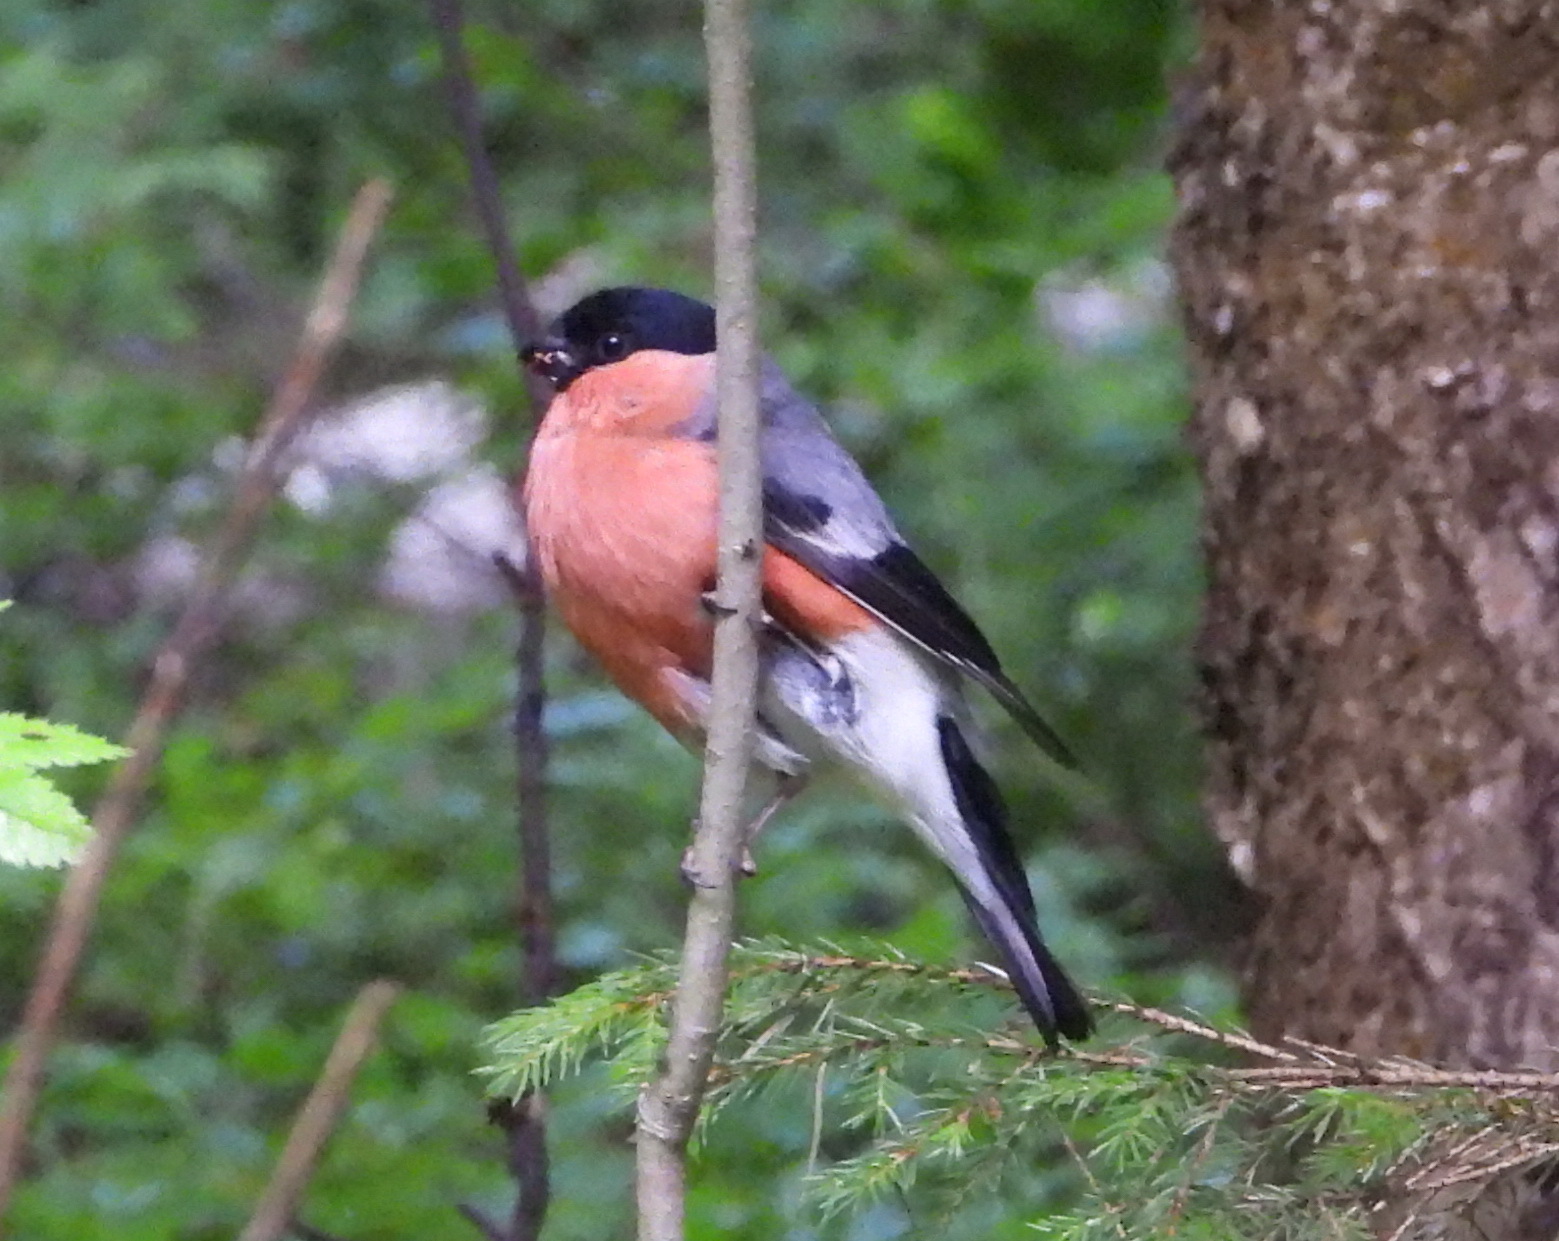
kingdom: Animalia
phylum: Chordata
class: Aves
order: Passeriformes
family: Fringillidae
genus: Pyrrhula
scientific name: Pyrrhula pyrrhula
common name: Eurasian bullfinch
